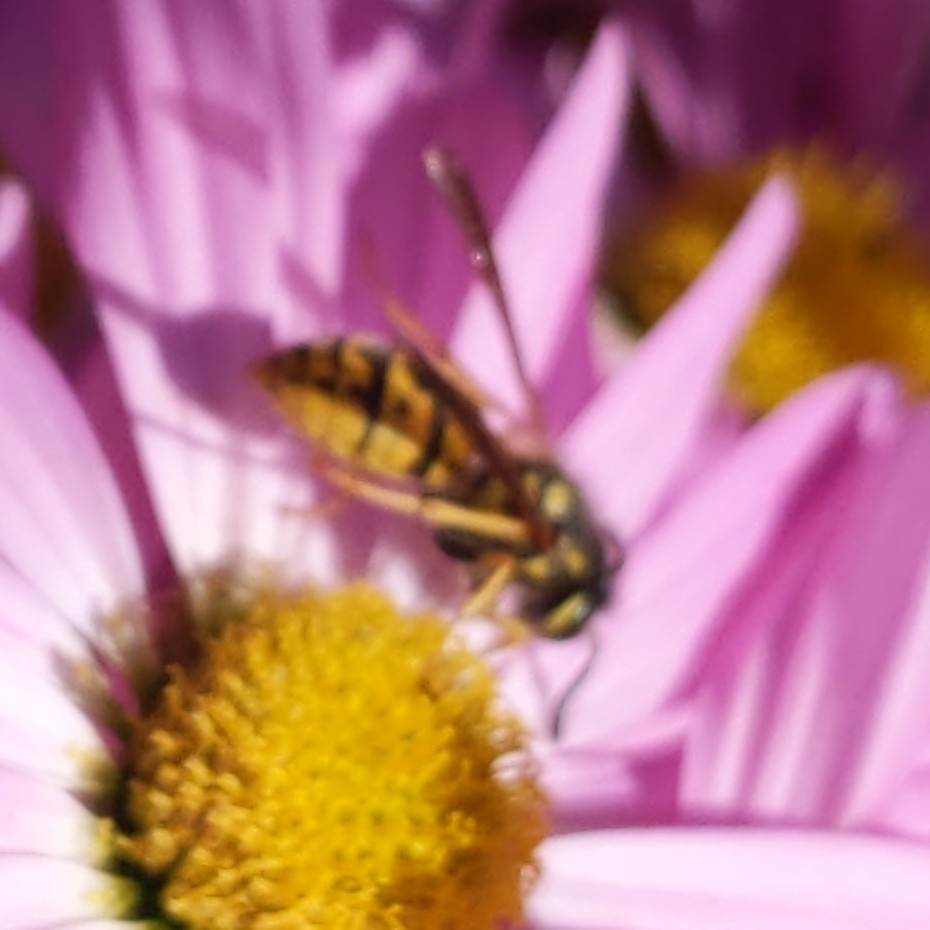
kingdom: Animalia
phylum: Arthropoda
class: Insecta
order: Hymenoptera
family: Vespidae
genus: Vespula
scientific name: Vespula germanica
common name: German wasp
